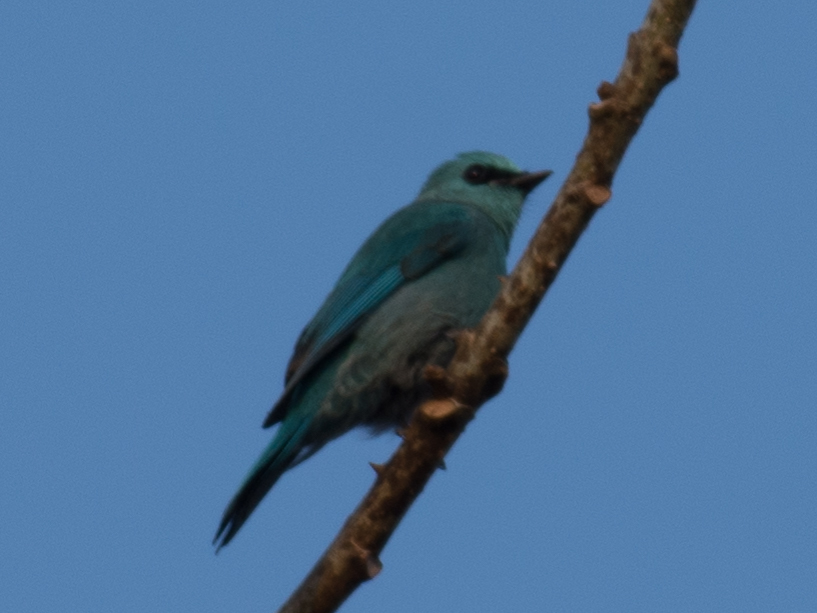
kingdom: Animalia
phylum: Chordata
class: Aves
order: Passeriformes
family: Muscicapidae
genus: Eumyias
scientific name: Eumyias thalassinus
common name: Verditer flycatcher
